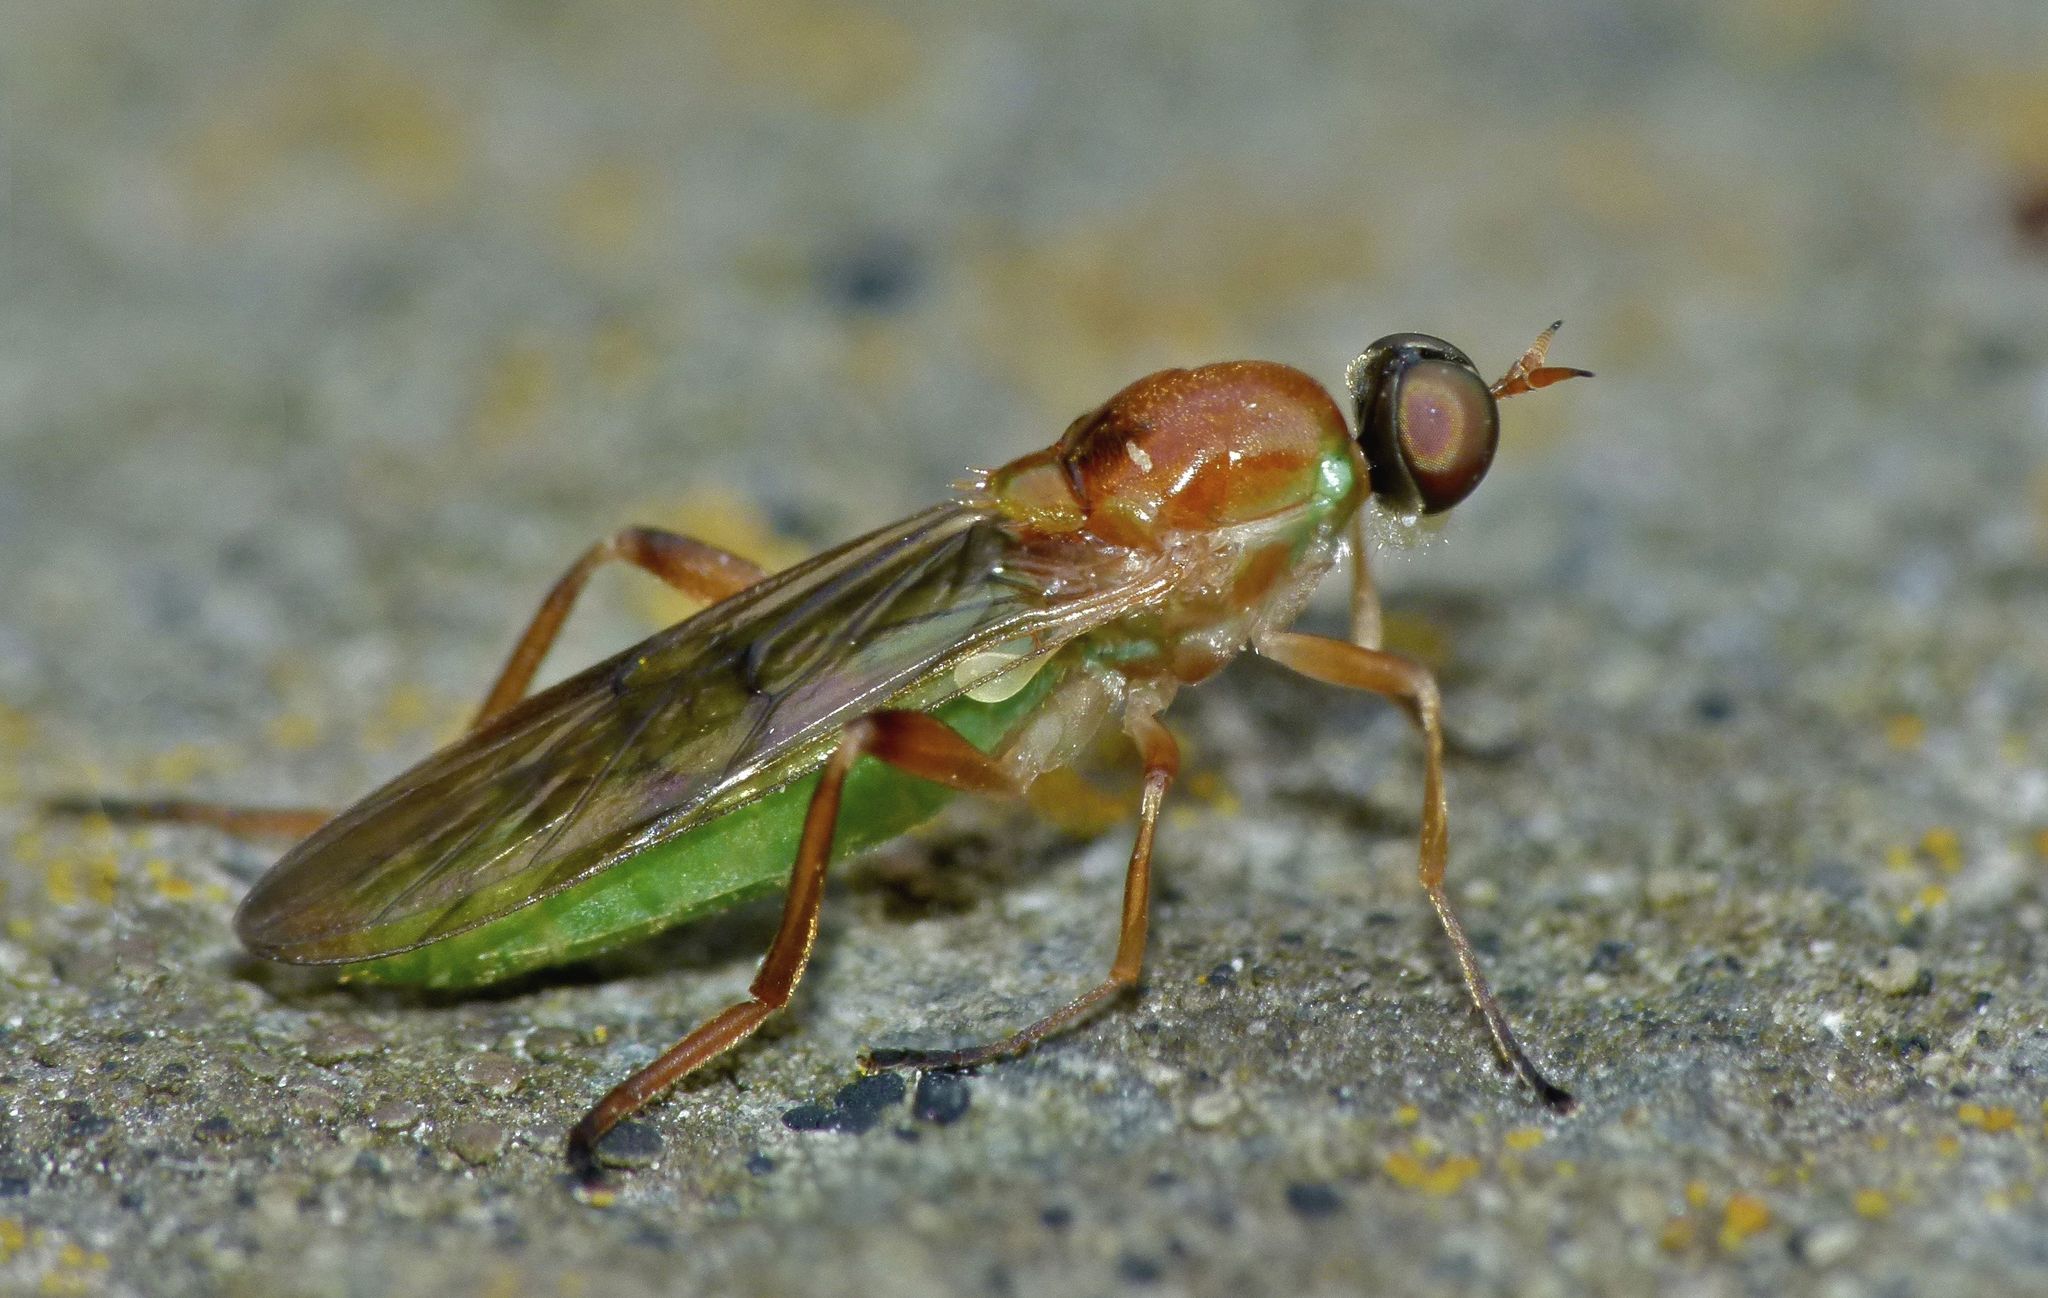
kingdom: Animalia
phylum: Arthropoda
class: Insecta
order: Diptera
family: Stratiomyidae
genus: Australoberis
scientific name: Australoberis refugians
